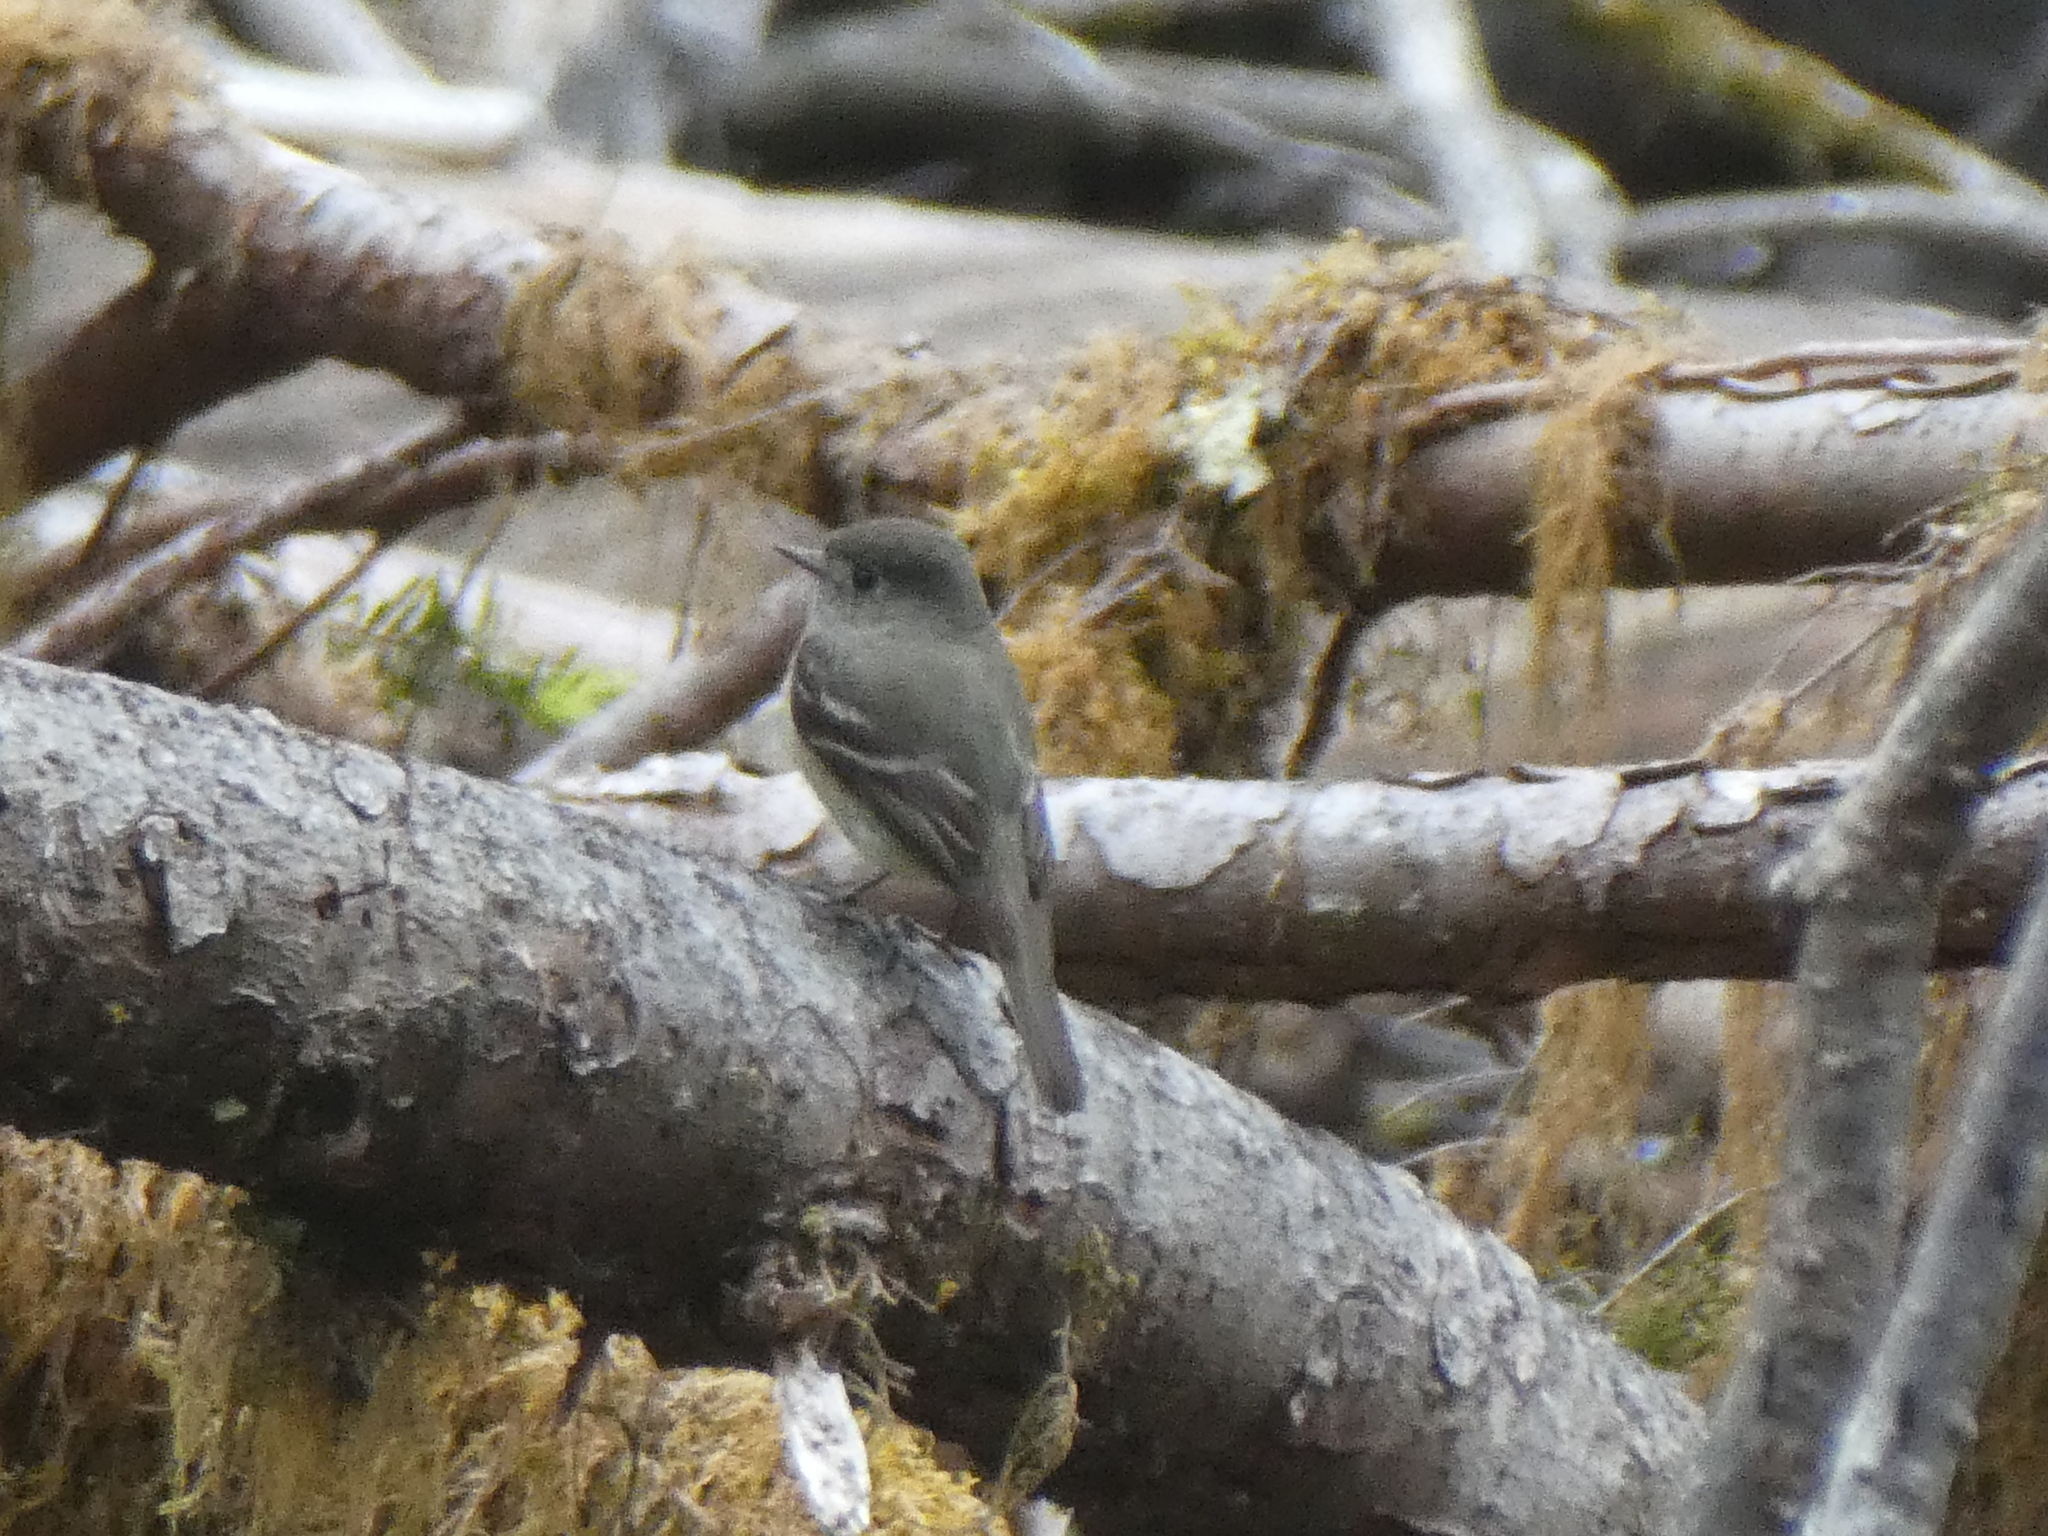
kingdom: Animalia
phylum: Chordata
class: Aves
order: Passeriformes
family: Tyrannidae
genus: Empidonax
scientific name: Empidonax hammondii
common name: Hammond's flycatcher
